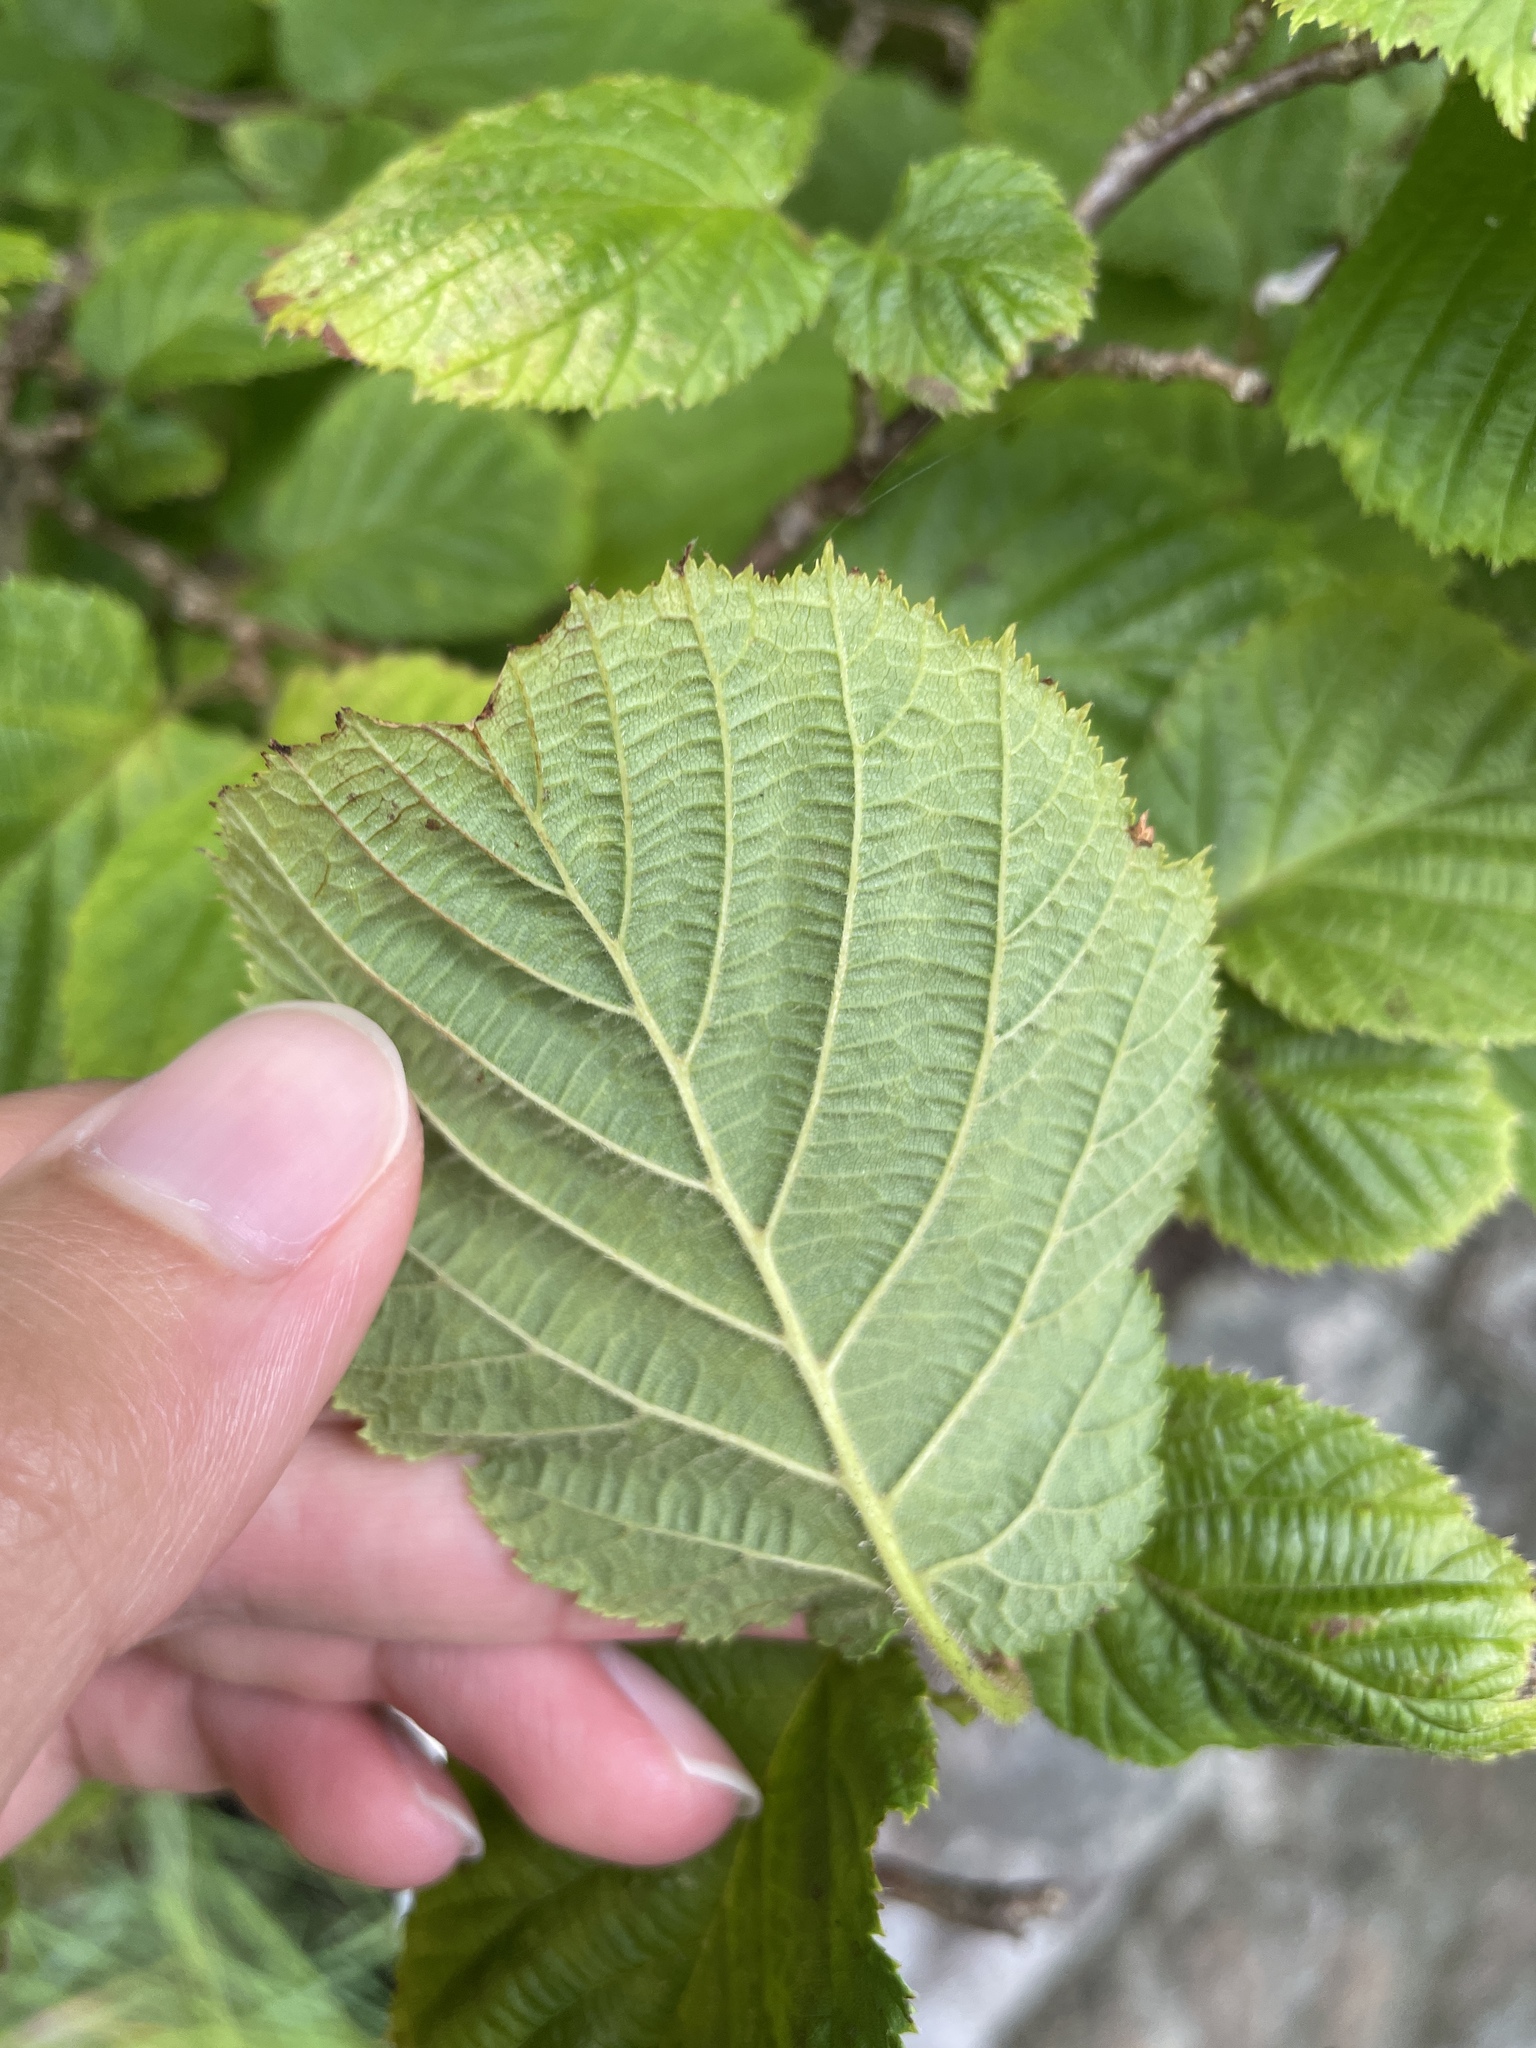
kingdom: Plantae
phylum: Tracheophyta
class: Magnoliopsida
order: Fagales
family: Betulaceae
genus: Corylus
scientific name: Corylus avellana
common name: European hazel
